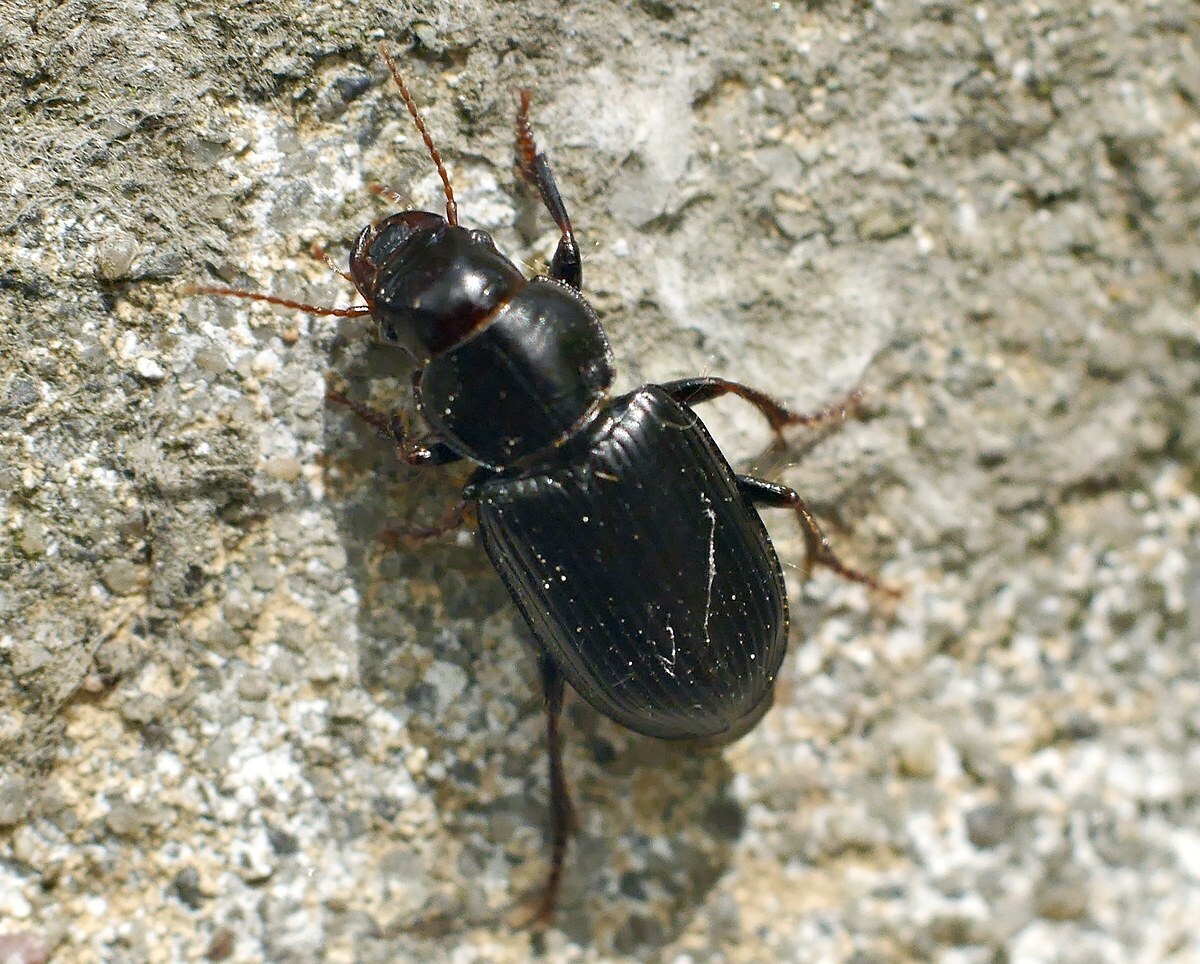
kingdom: Animalia
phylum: Arthropoda
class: Insecta
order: Coleoptera
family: Carabidae
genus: Pangus
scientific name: Pangus scaritides
